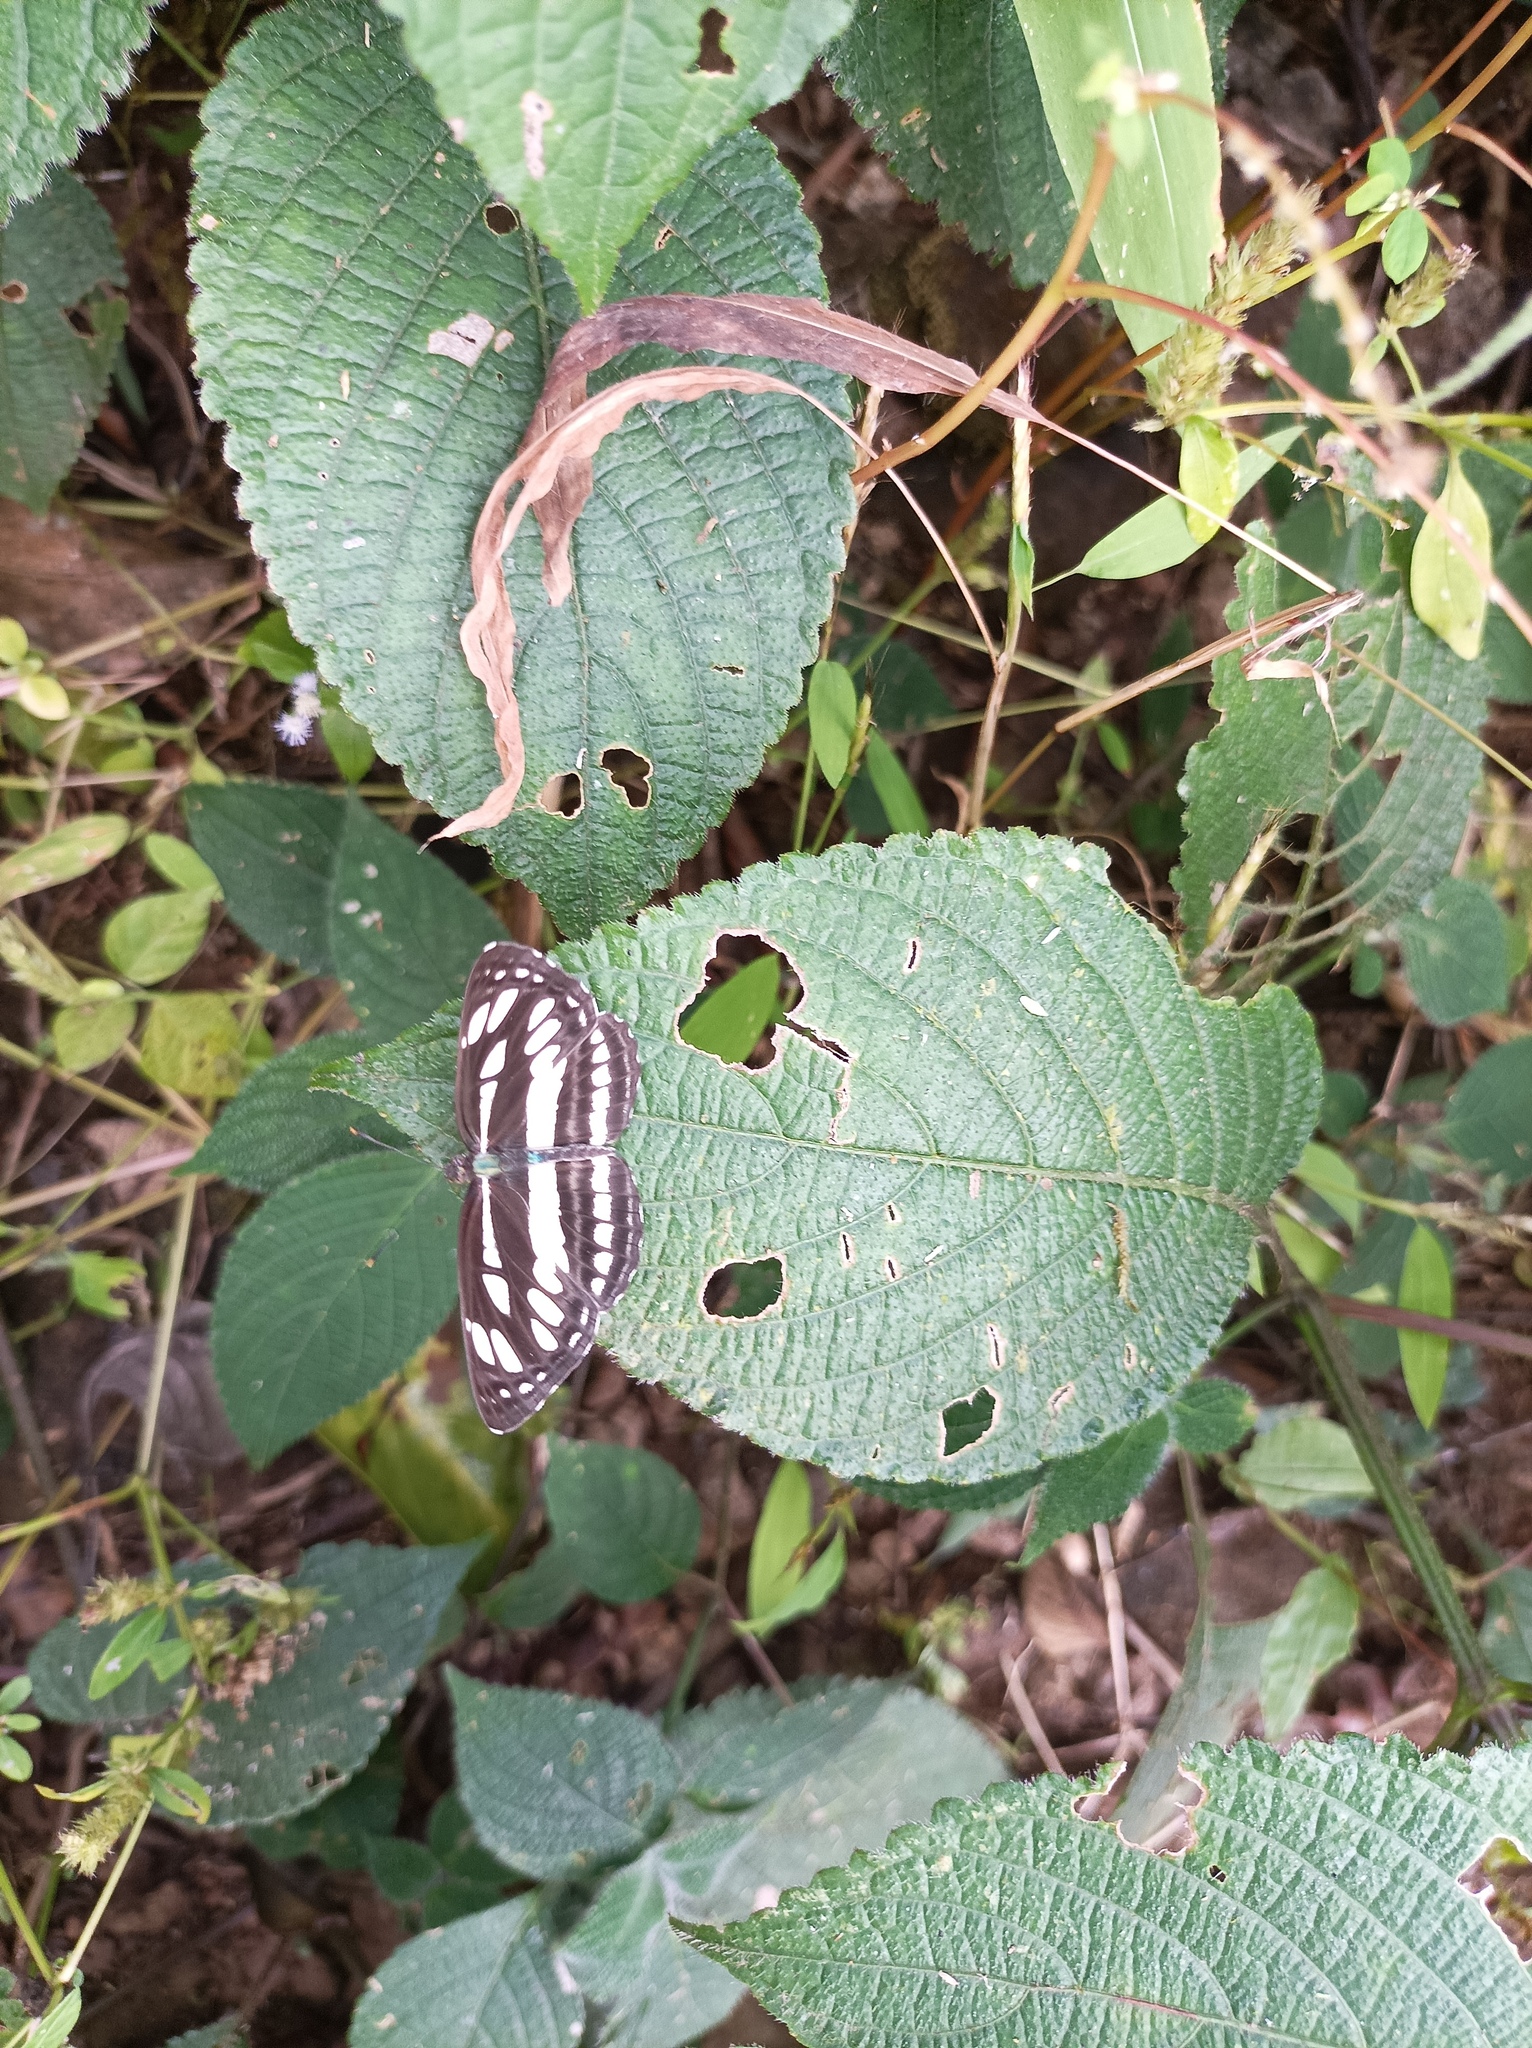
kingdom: Animalia
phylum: Arthropoda
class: Insecta
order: Lepidoptera
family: Nymphalidae
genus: Neptis
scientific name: Neptis hylas
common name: Common sailer
